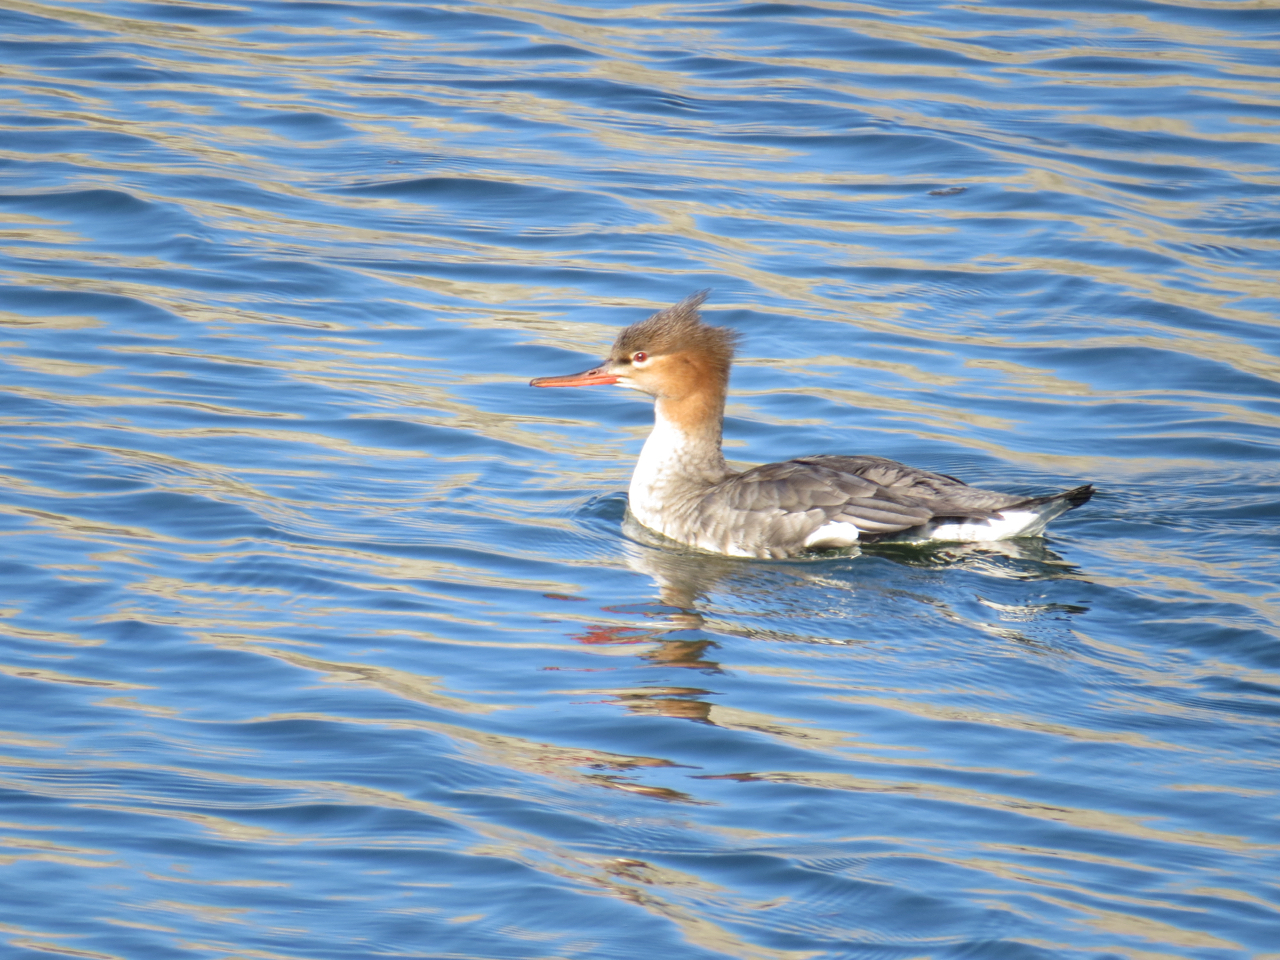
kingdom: Animalia
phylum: Chordata
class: Aves
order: Anseriformes
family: Anatidae
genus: Mergus
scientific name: Mergus serrator
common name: Red-breasted merganser
